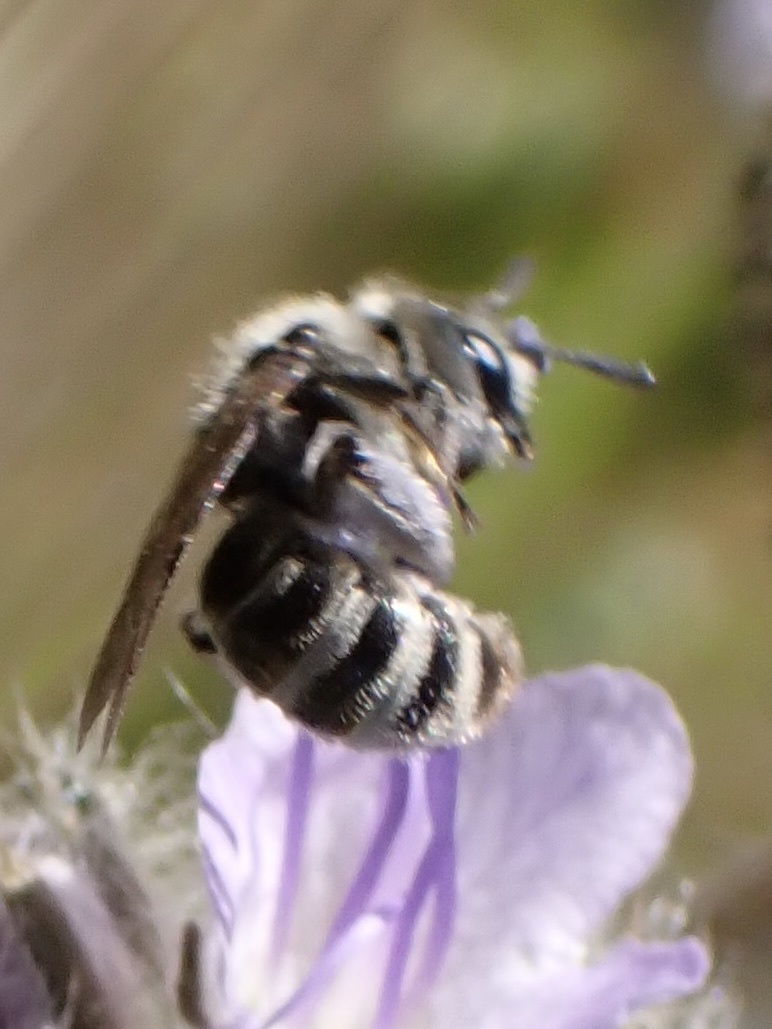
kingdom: Animalia
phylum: Arthropoda
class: Insecta
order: Hymenoptera
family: Halictidae
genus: Dufourea
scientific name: Dufourea mulleri
